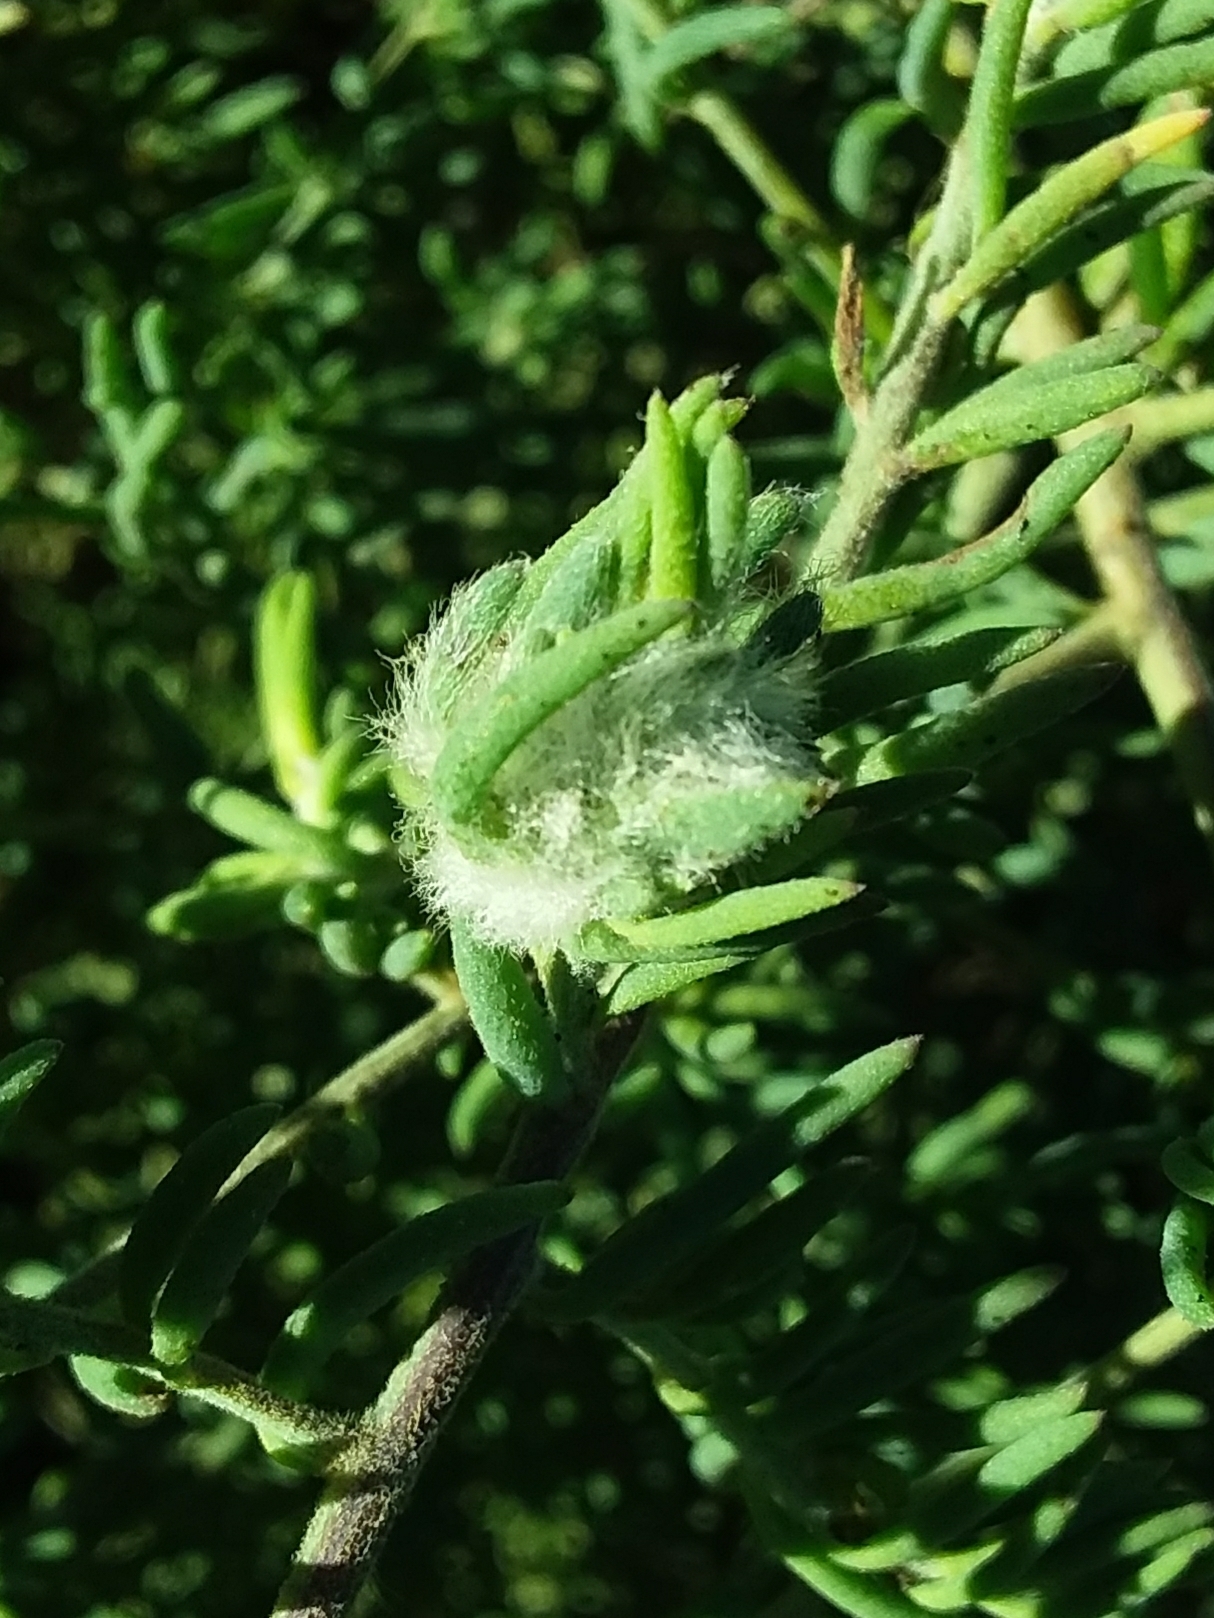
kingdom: Animalia
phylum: Arthropoda
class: Insecta
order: Diptera
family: Cecidomyiidae
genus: Asphondylia
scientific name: Asphondylia tonsura
